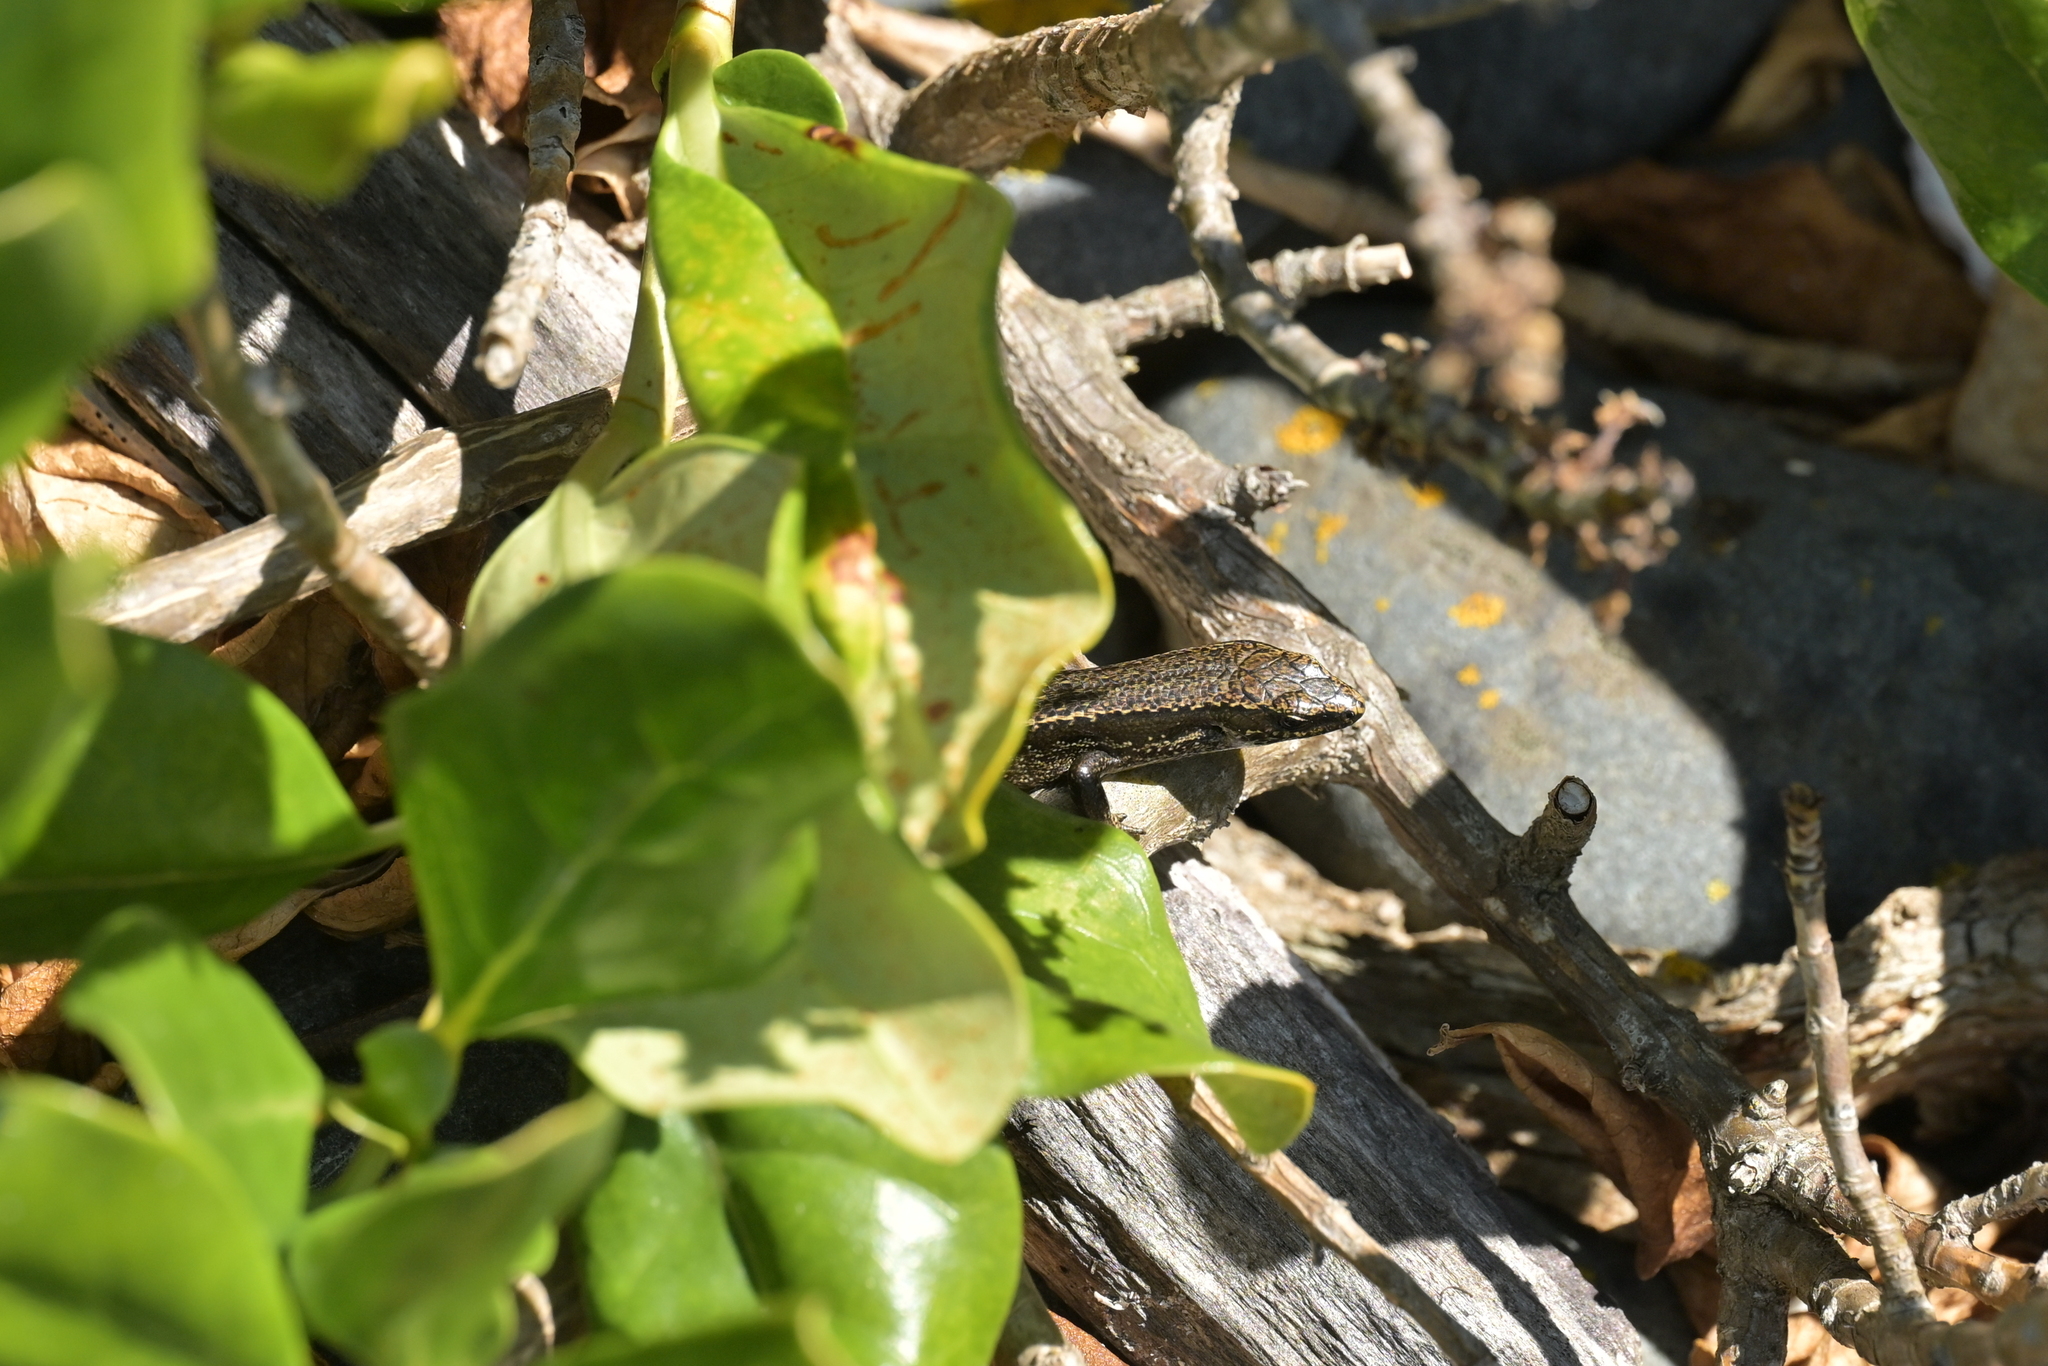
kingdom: Animalia
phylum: Chordata
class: Squamata
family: Scincidae
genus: Oligosoma
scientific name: Oligosoma polychroma
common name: Common new zealand skink
